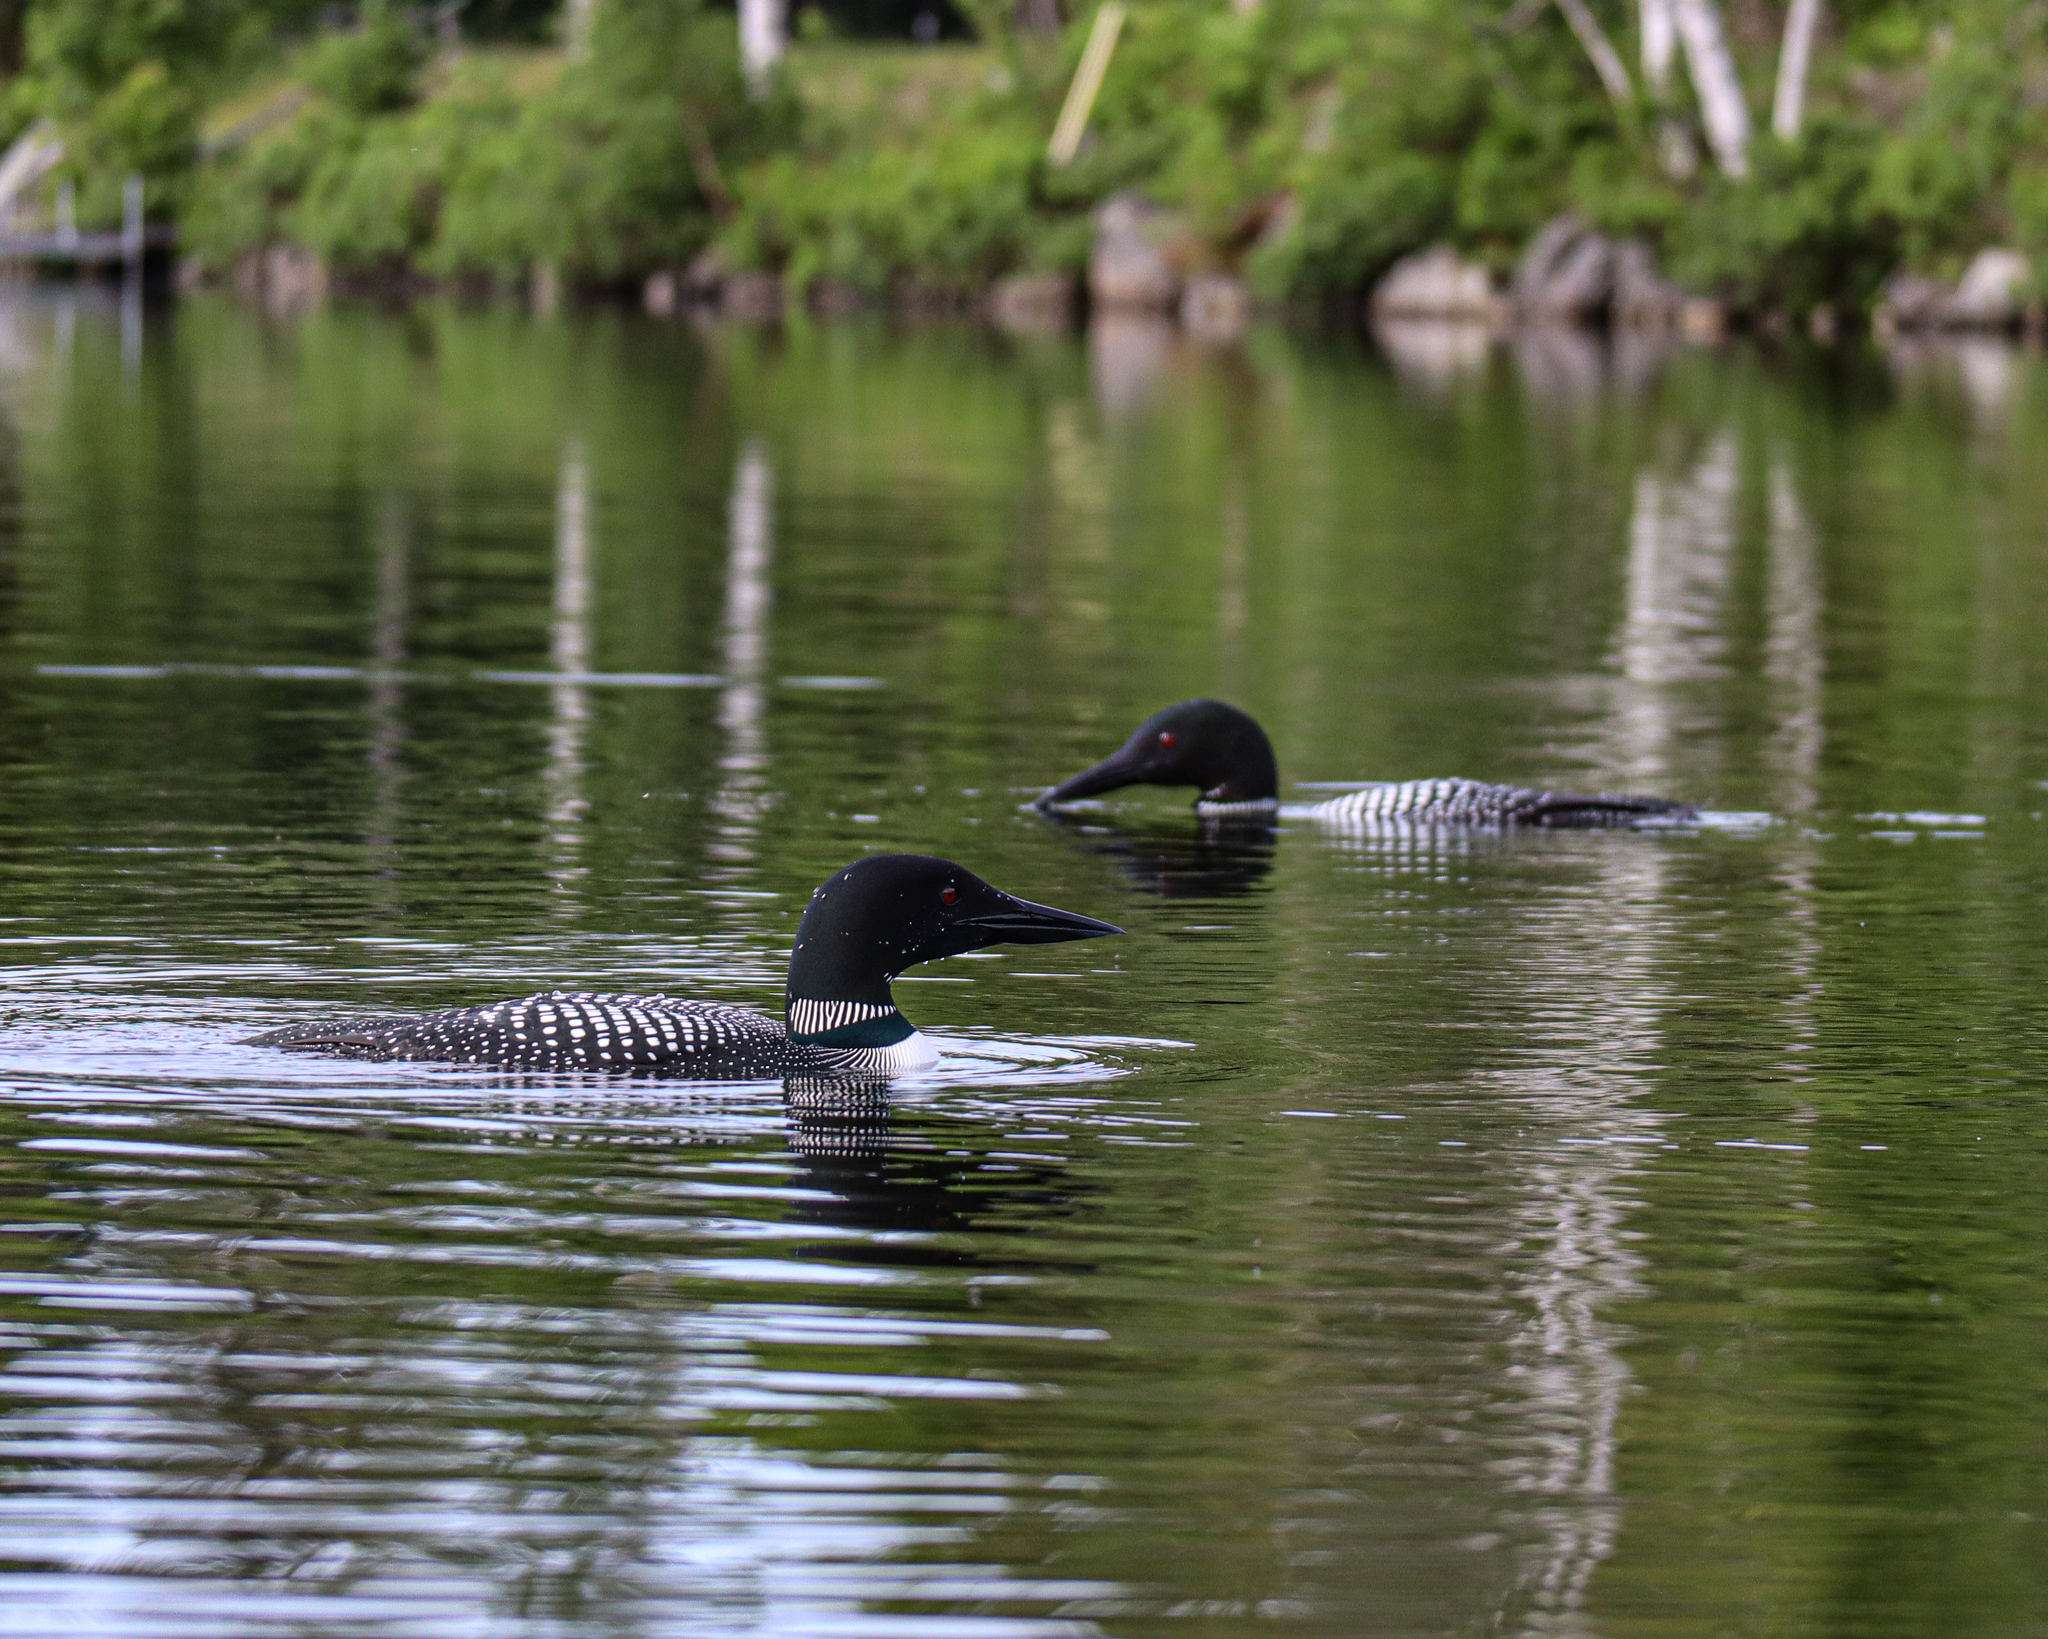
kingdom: Animalia
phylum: Chordata
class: Aves
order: Gaviiformes
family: Gaviidae
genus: Gavia
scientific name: Gavia immer
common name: Common loon
